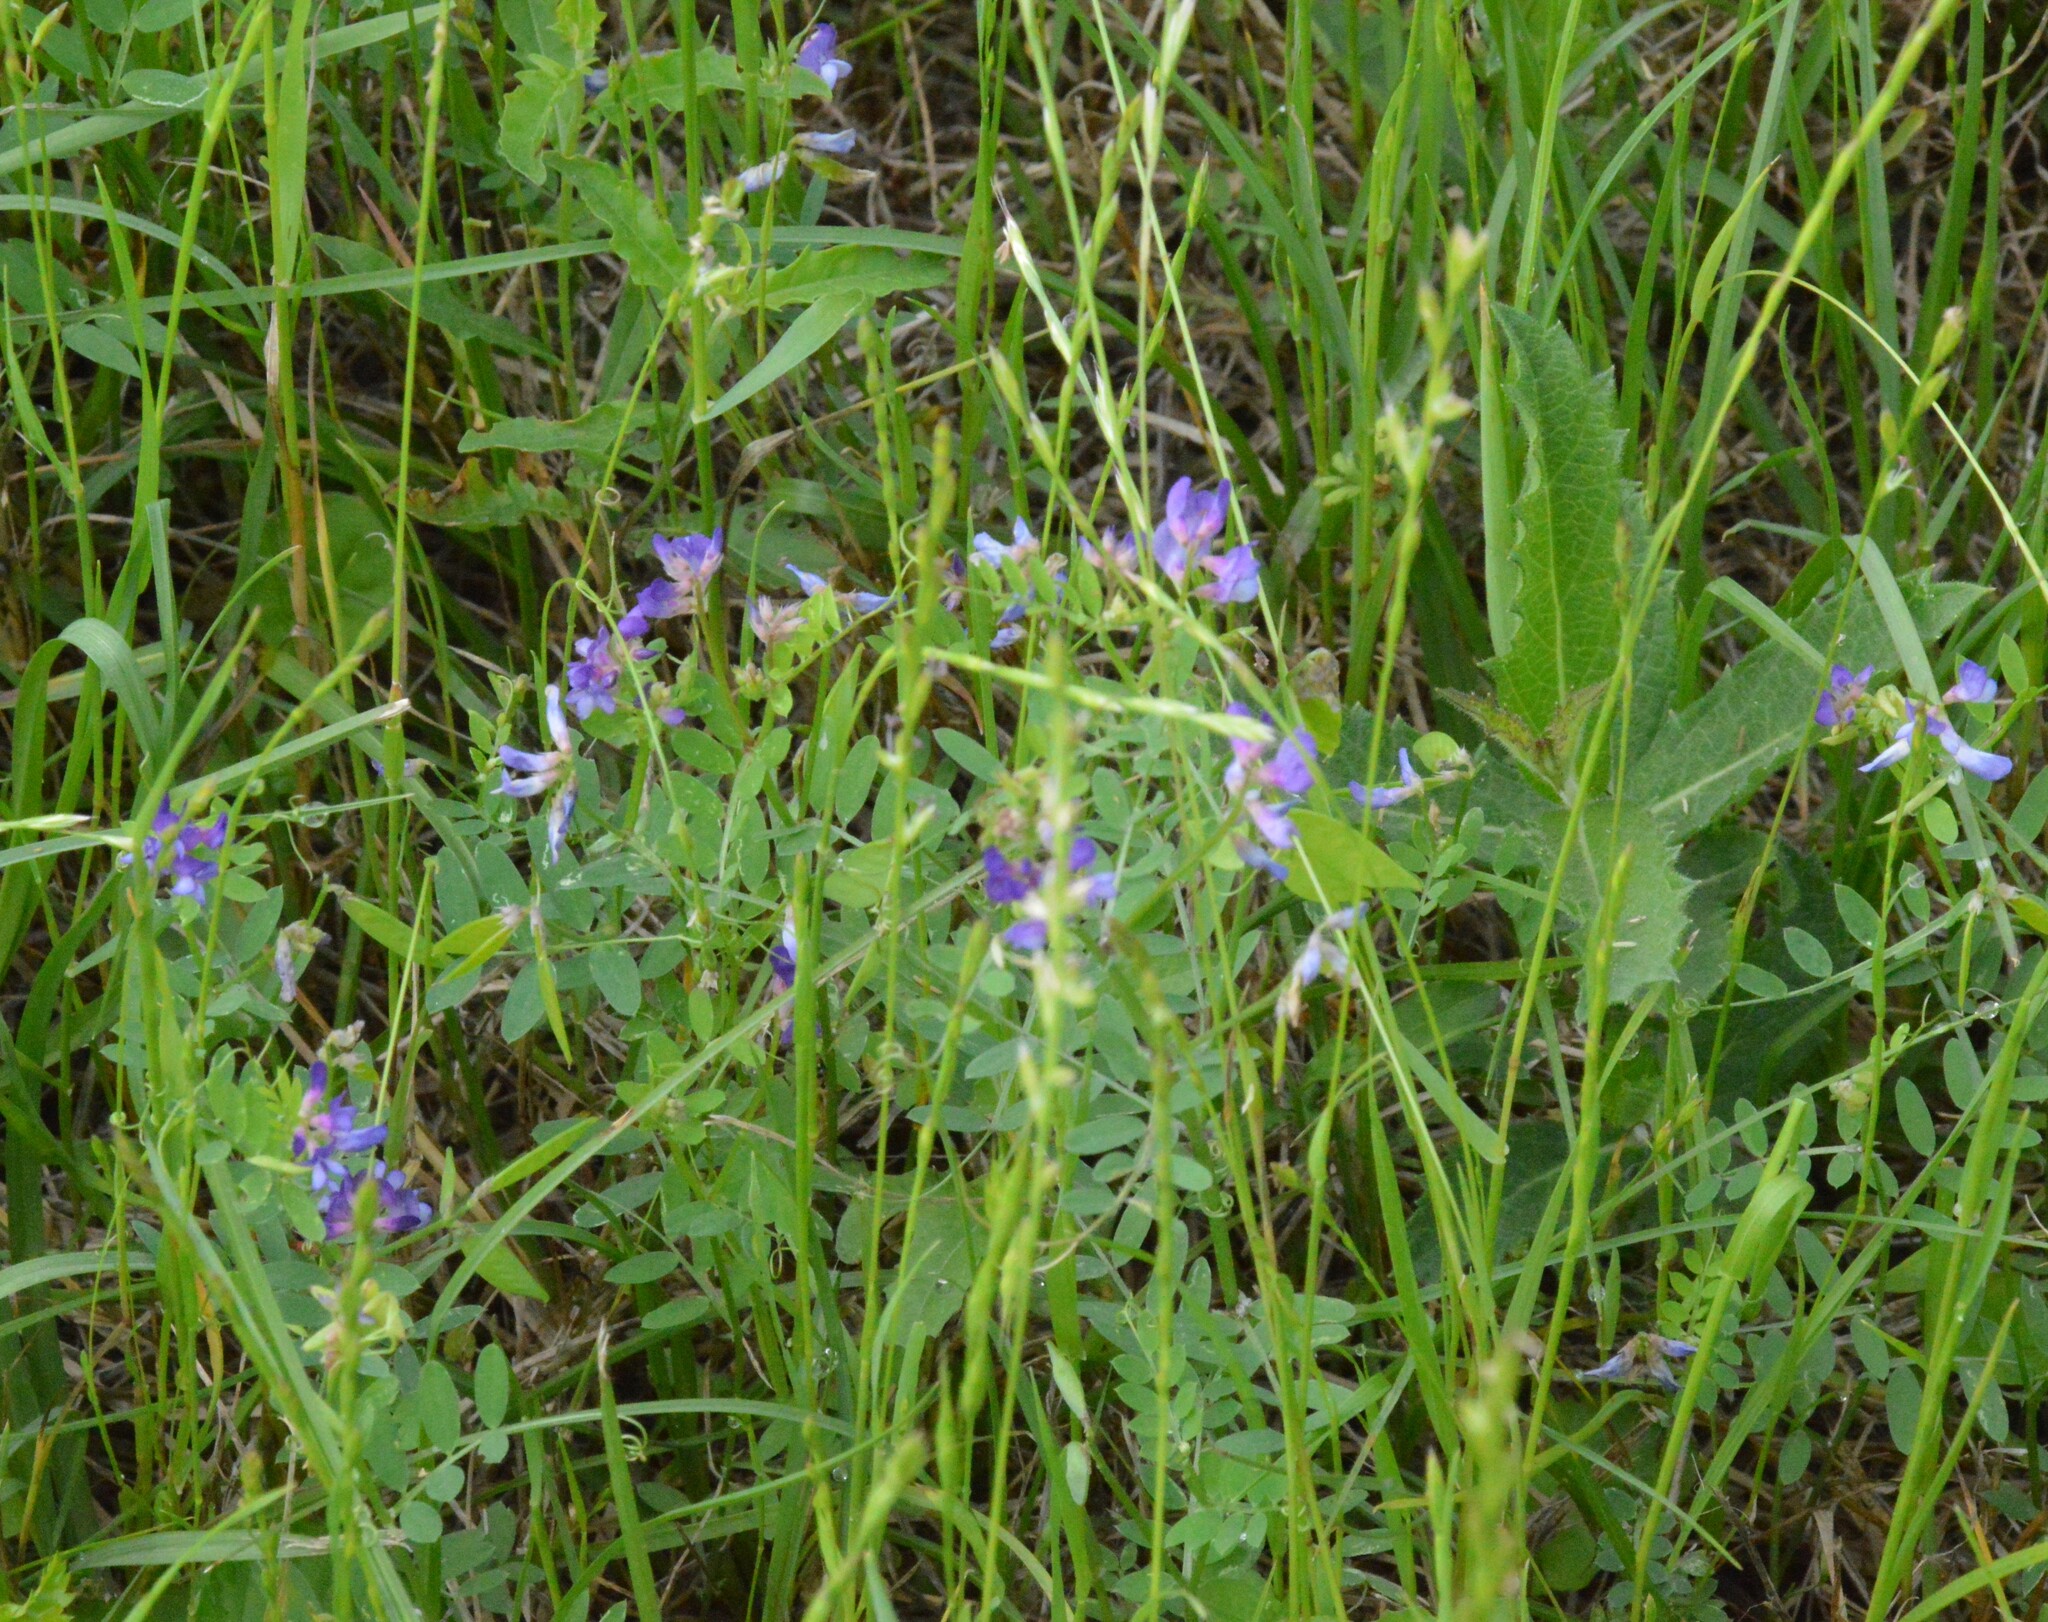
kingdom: Plantae
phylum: Tracheophyta
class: Magnoliopsida
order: Fabales
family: Fabaceae
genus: Vicia
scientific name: Vicia ludoviciana
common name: Louisiana vetch
